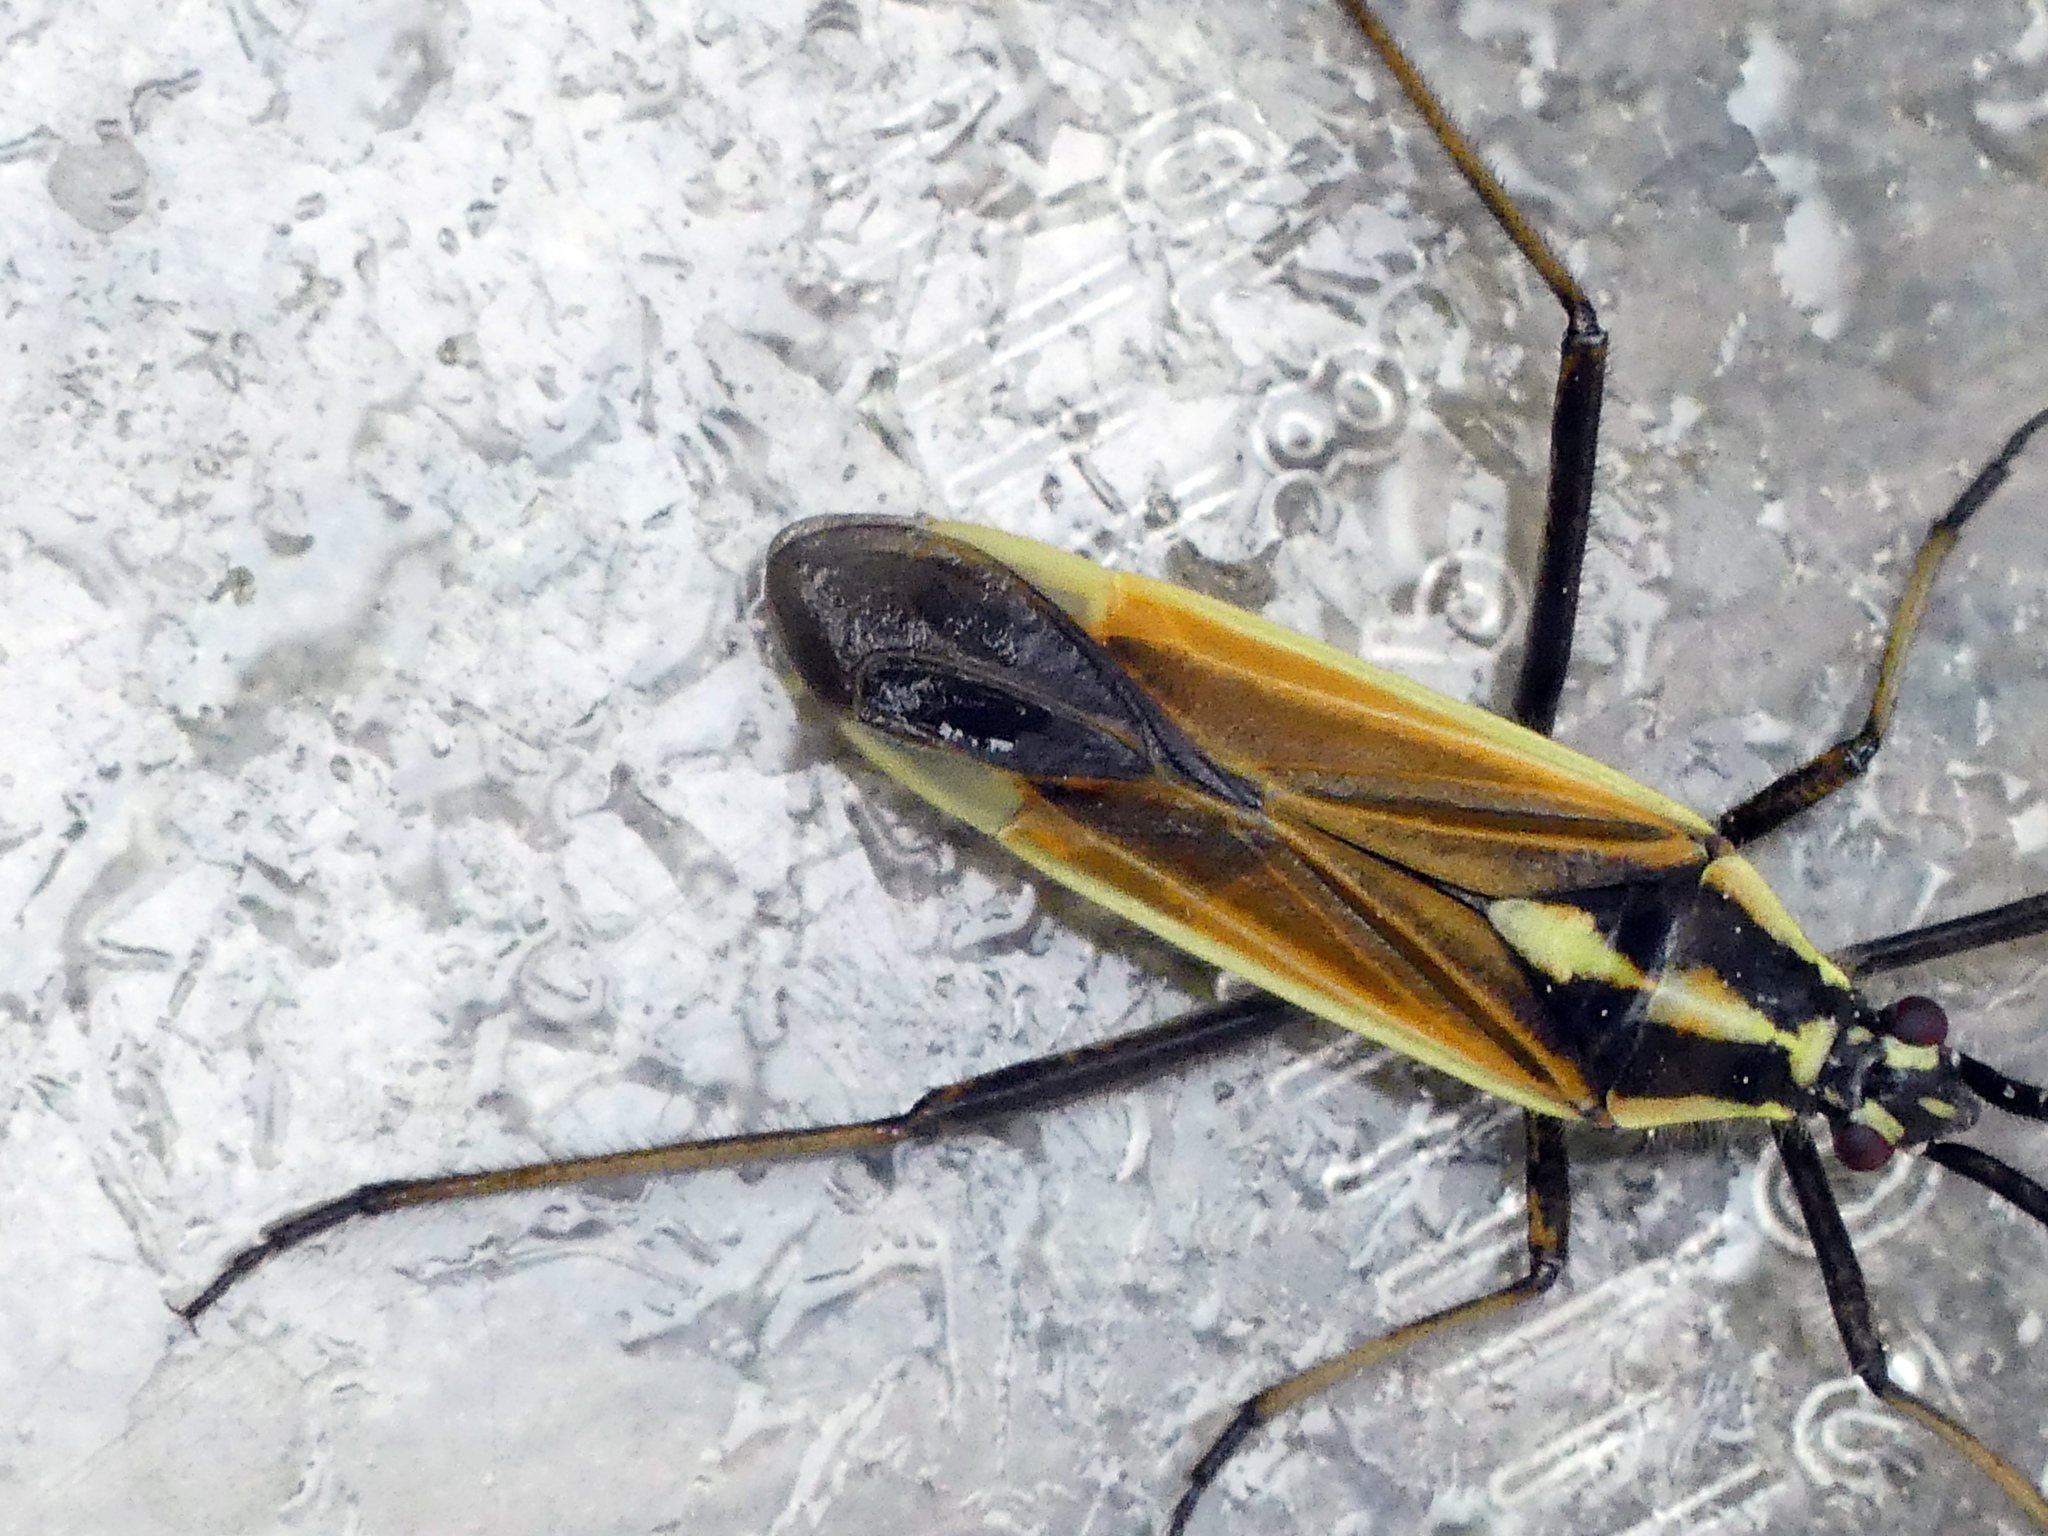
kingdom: Animalia
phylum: Arthropoda
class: Insecta
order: Hemiptera
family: Miridae
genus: Leptopterna
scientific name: Leptopterna dolabrata
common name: Meadow plant bug
